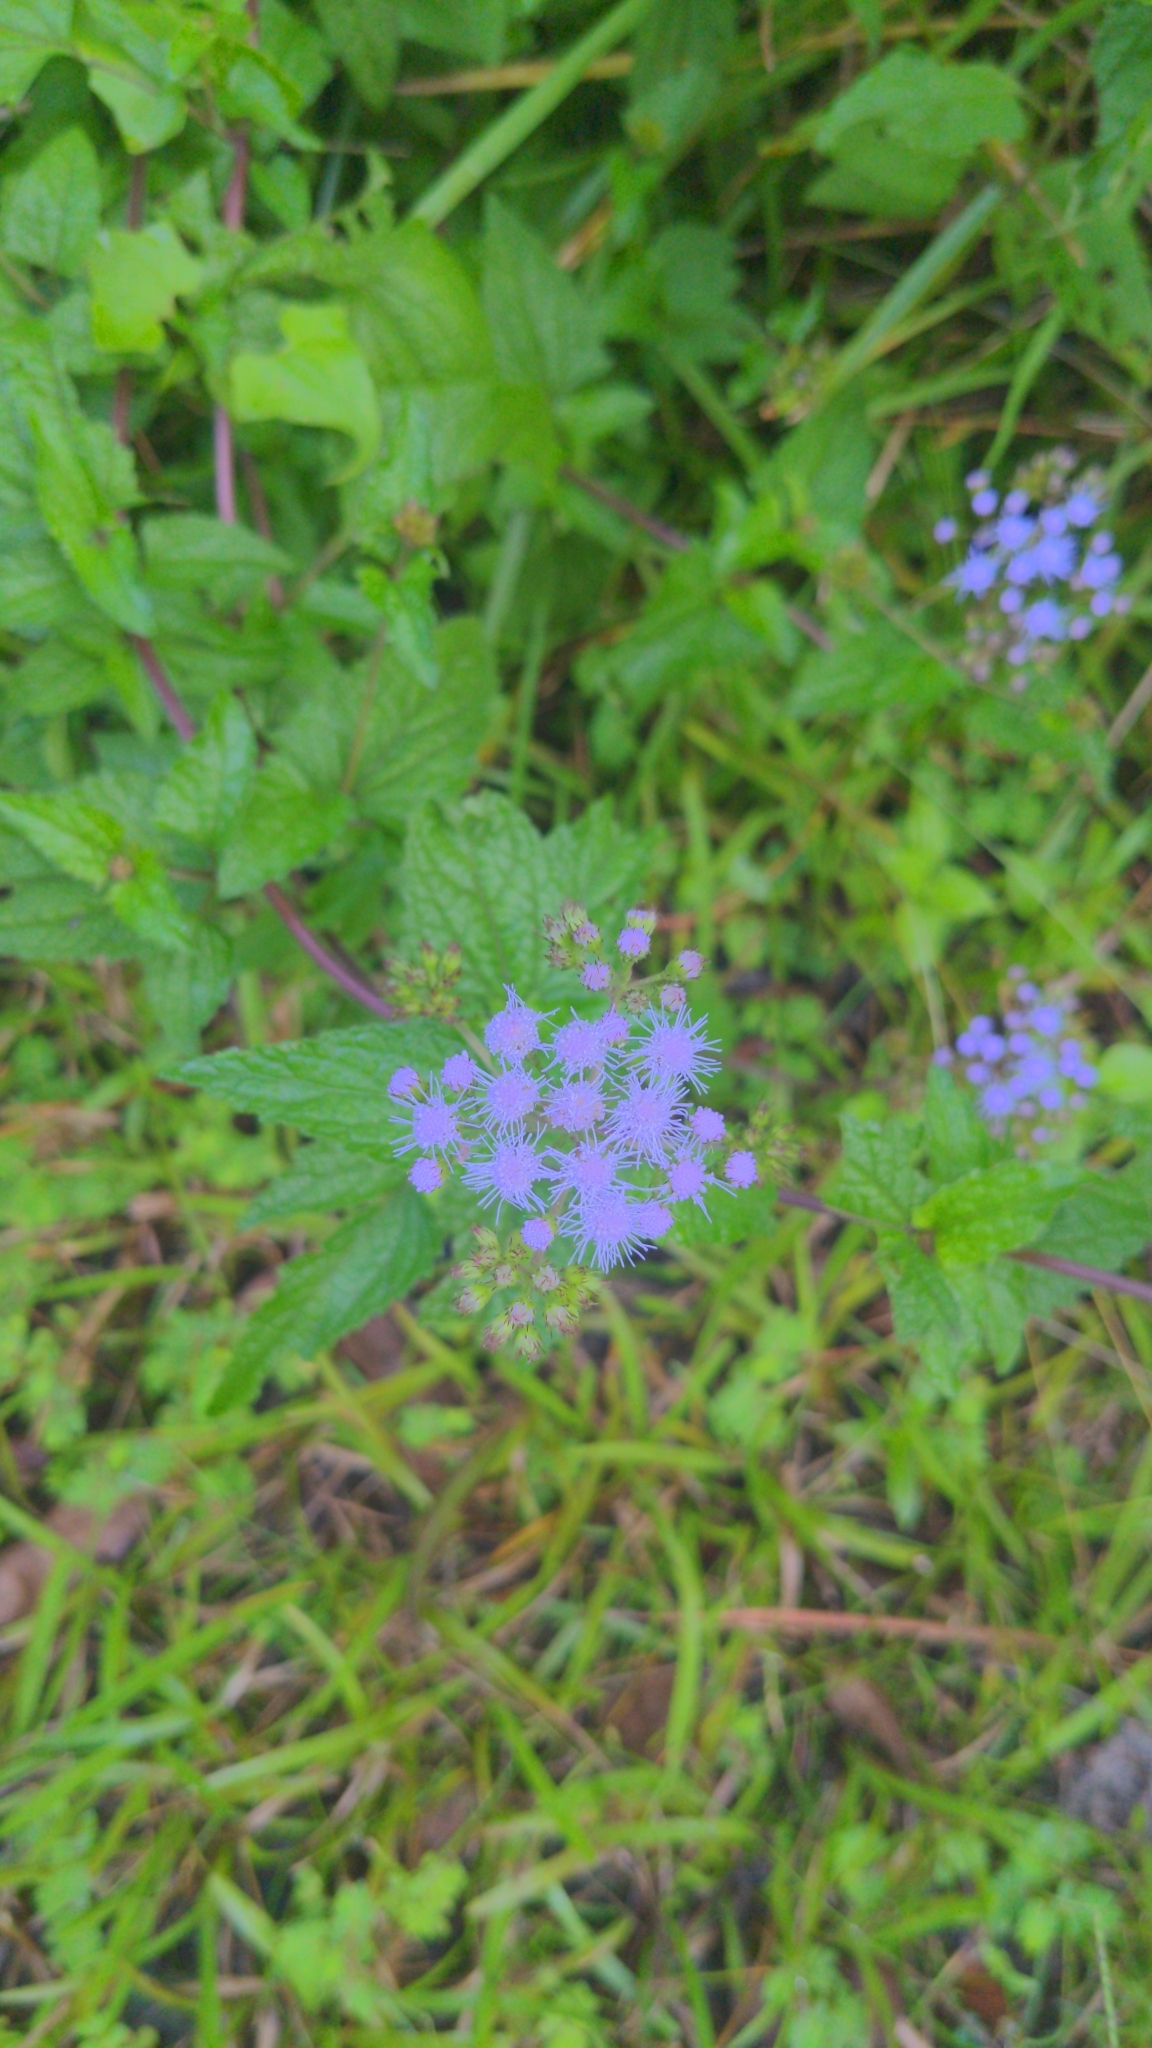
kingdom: Plantae
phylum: Tracheophyta
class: Magnoliopsida
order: Asterales
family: Asteraceae
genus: Conoclinium
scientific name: Conoclinium coelestinum
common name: Blue mistflower
